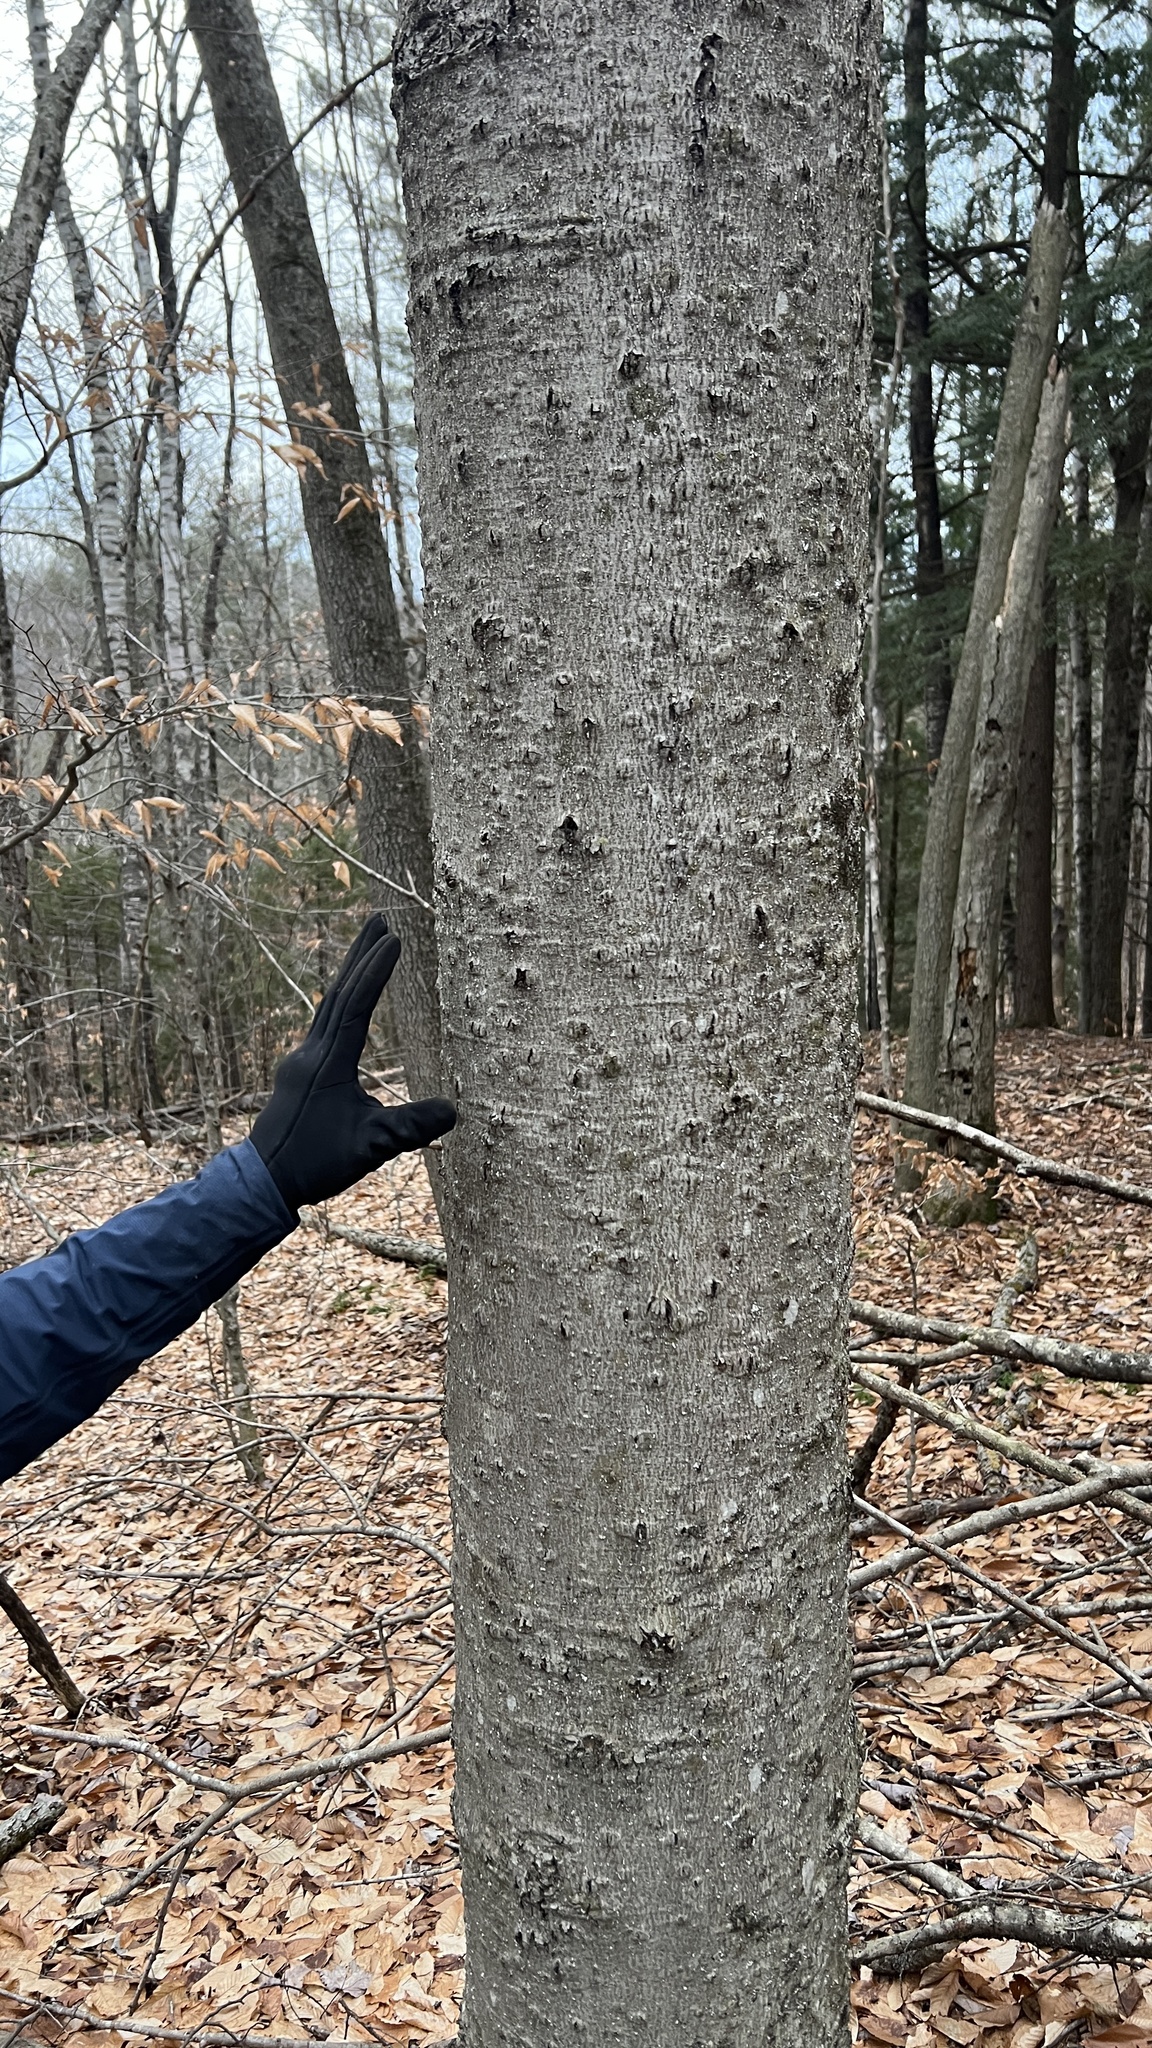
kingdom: Animalia
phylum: Arthropoda
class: Insecta
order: Hemiptera
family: Eriococcidae
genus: Cryptococcus
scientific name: Cryptococcus fagisuga
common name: Beech scale
